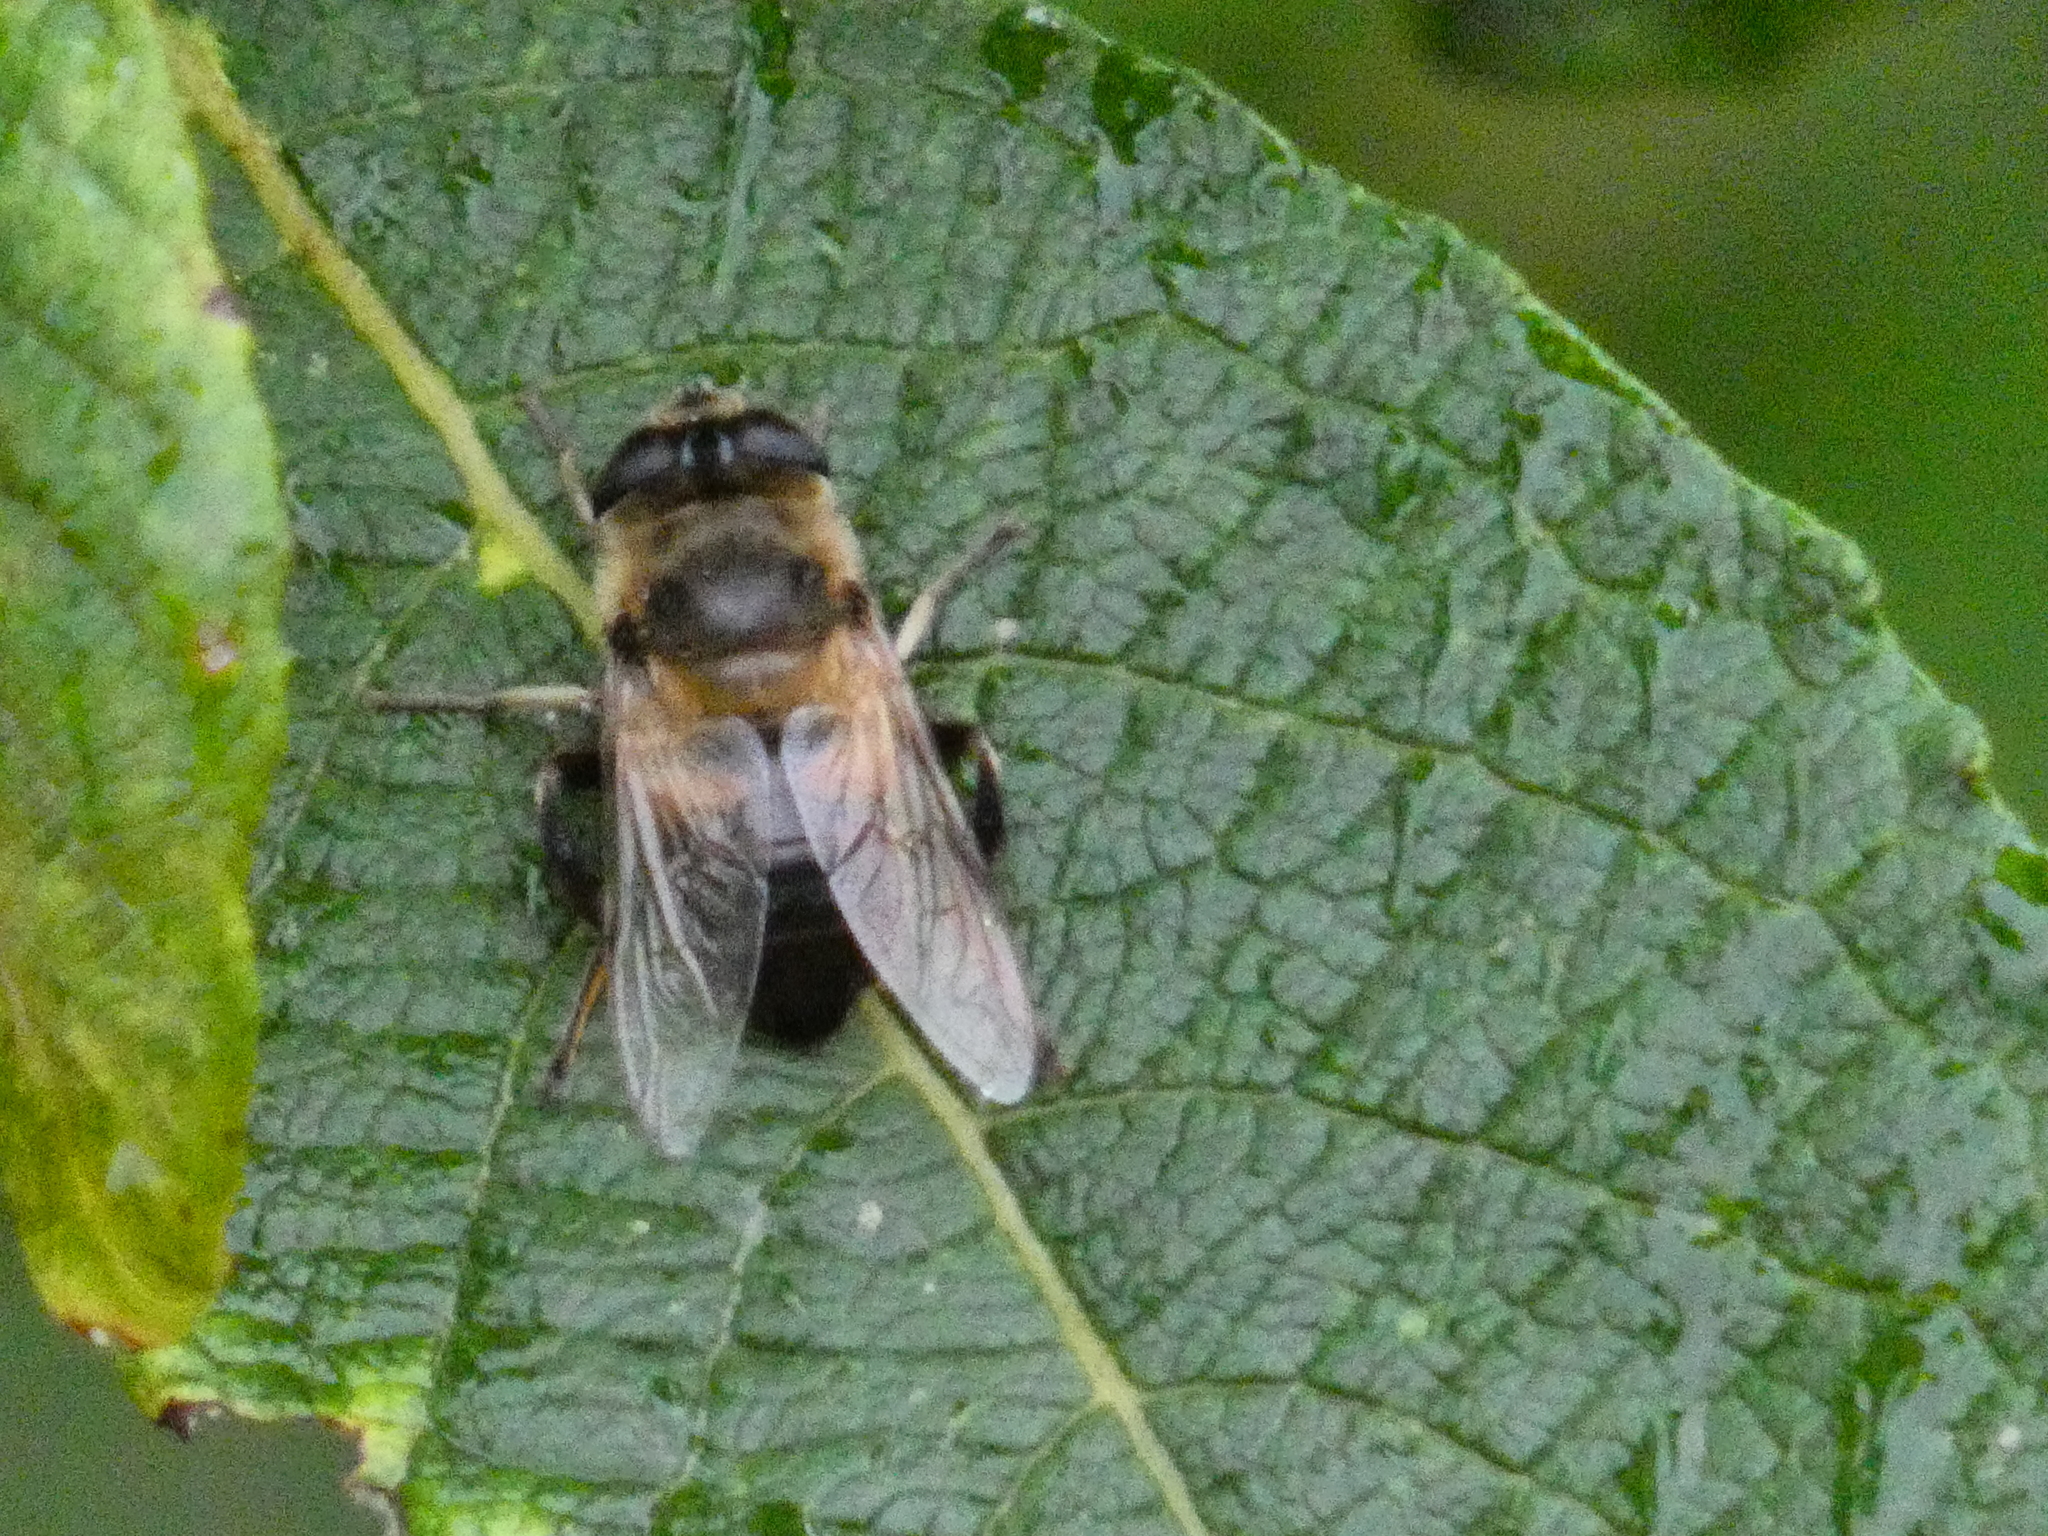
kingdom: Animalia
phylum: Arthropoda
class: Insecta
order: Diptera
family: Syrphidae
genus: Eristalis
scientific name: Eristalis tenax
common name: Drone fly
